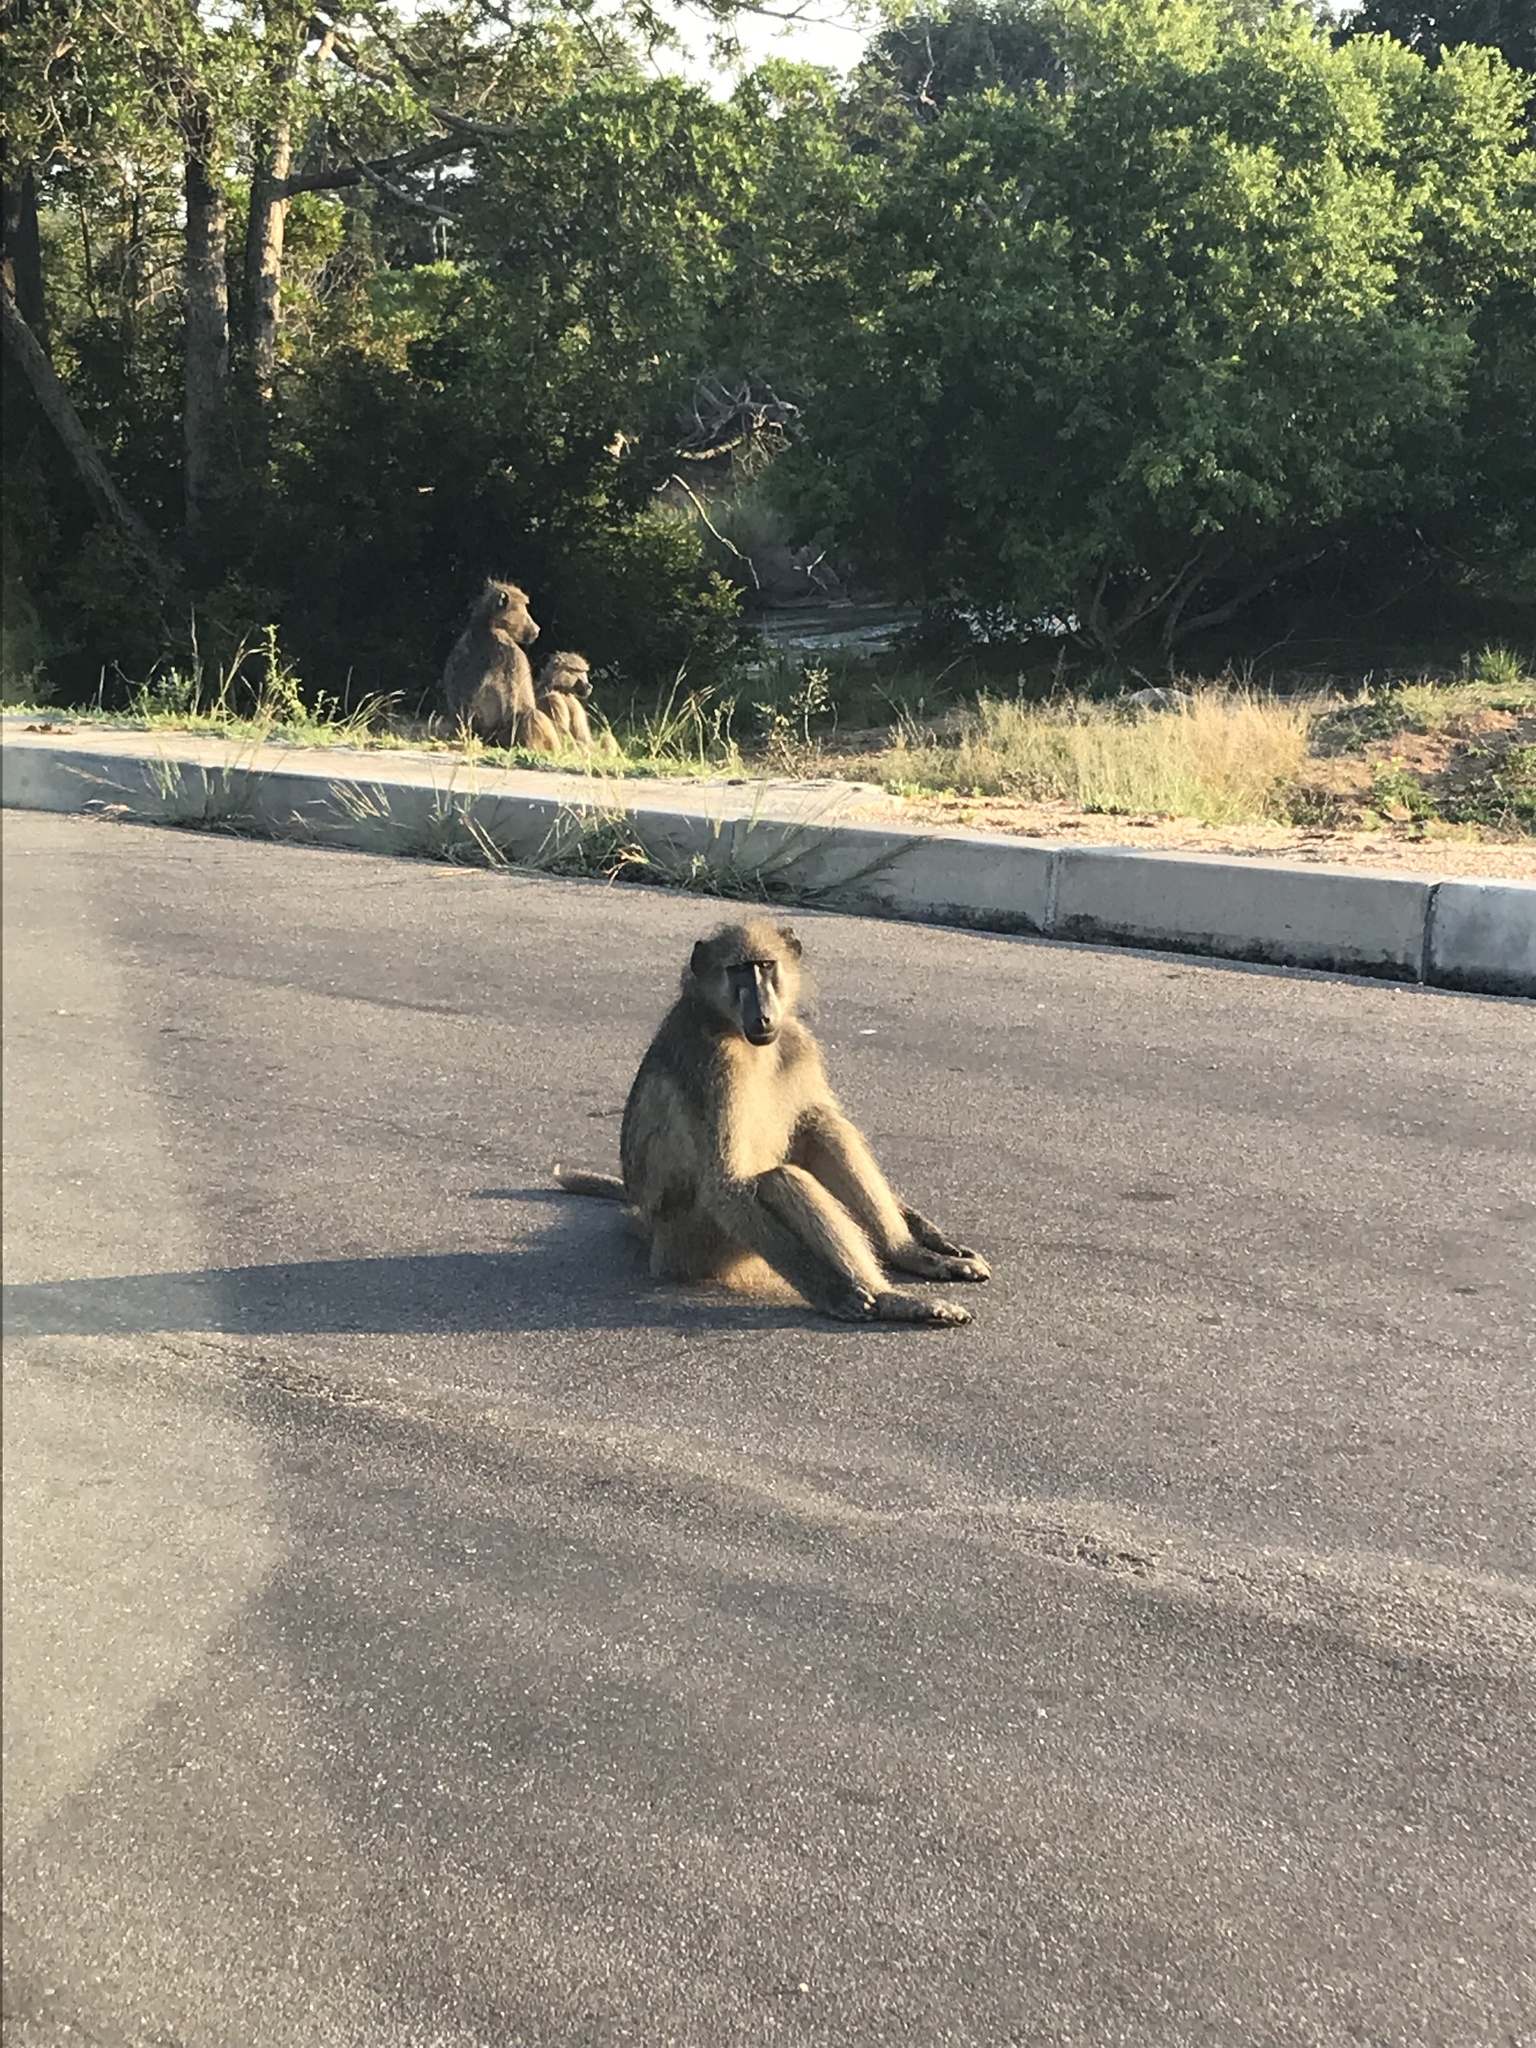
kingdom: Animalia
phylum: Chordata
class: Mammalia
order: Primates
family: Cercopithecidae
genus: Papio
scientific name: Papio ursinus
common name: Chacma baboon
